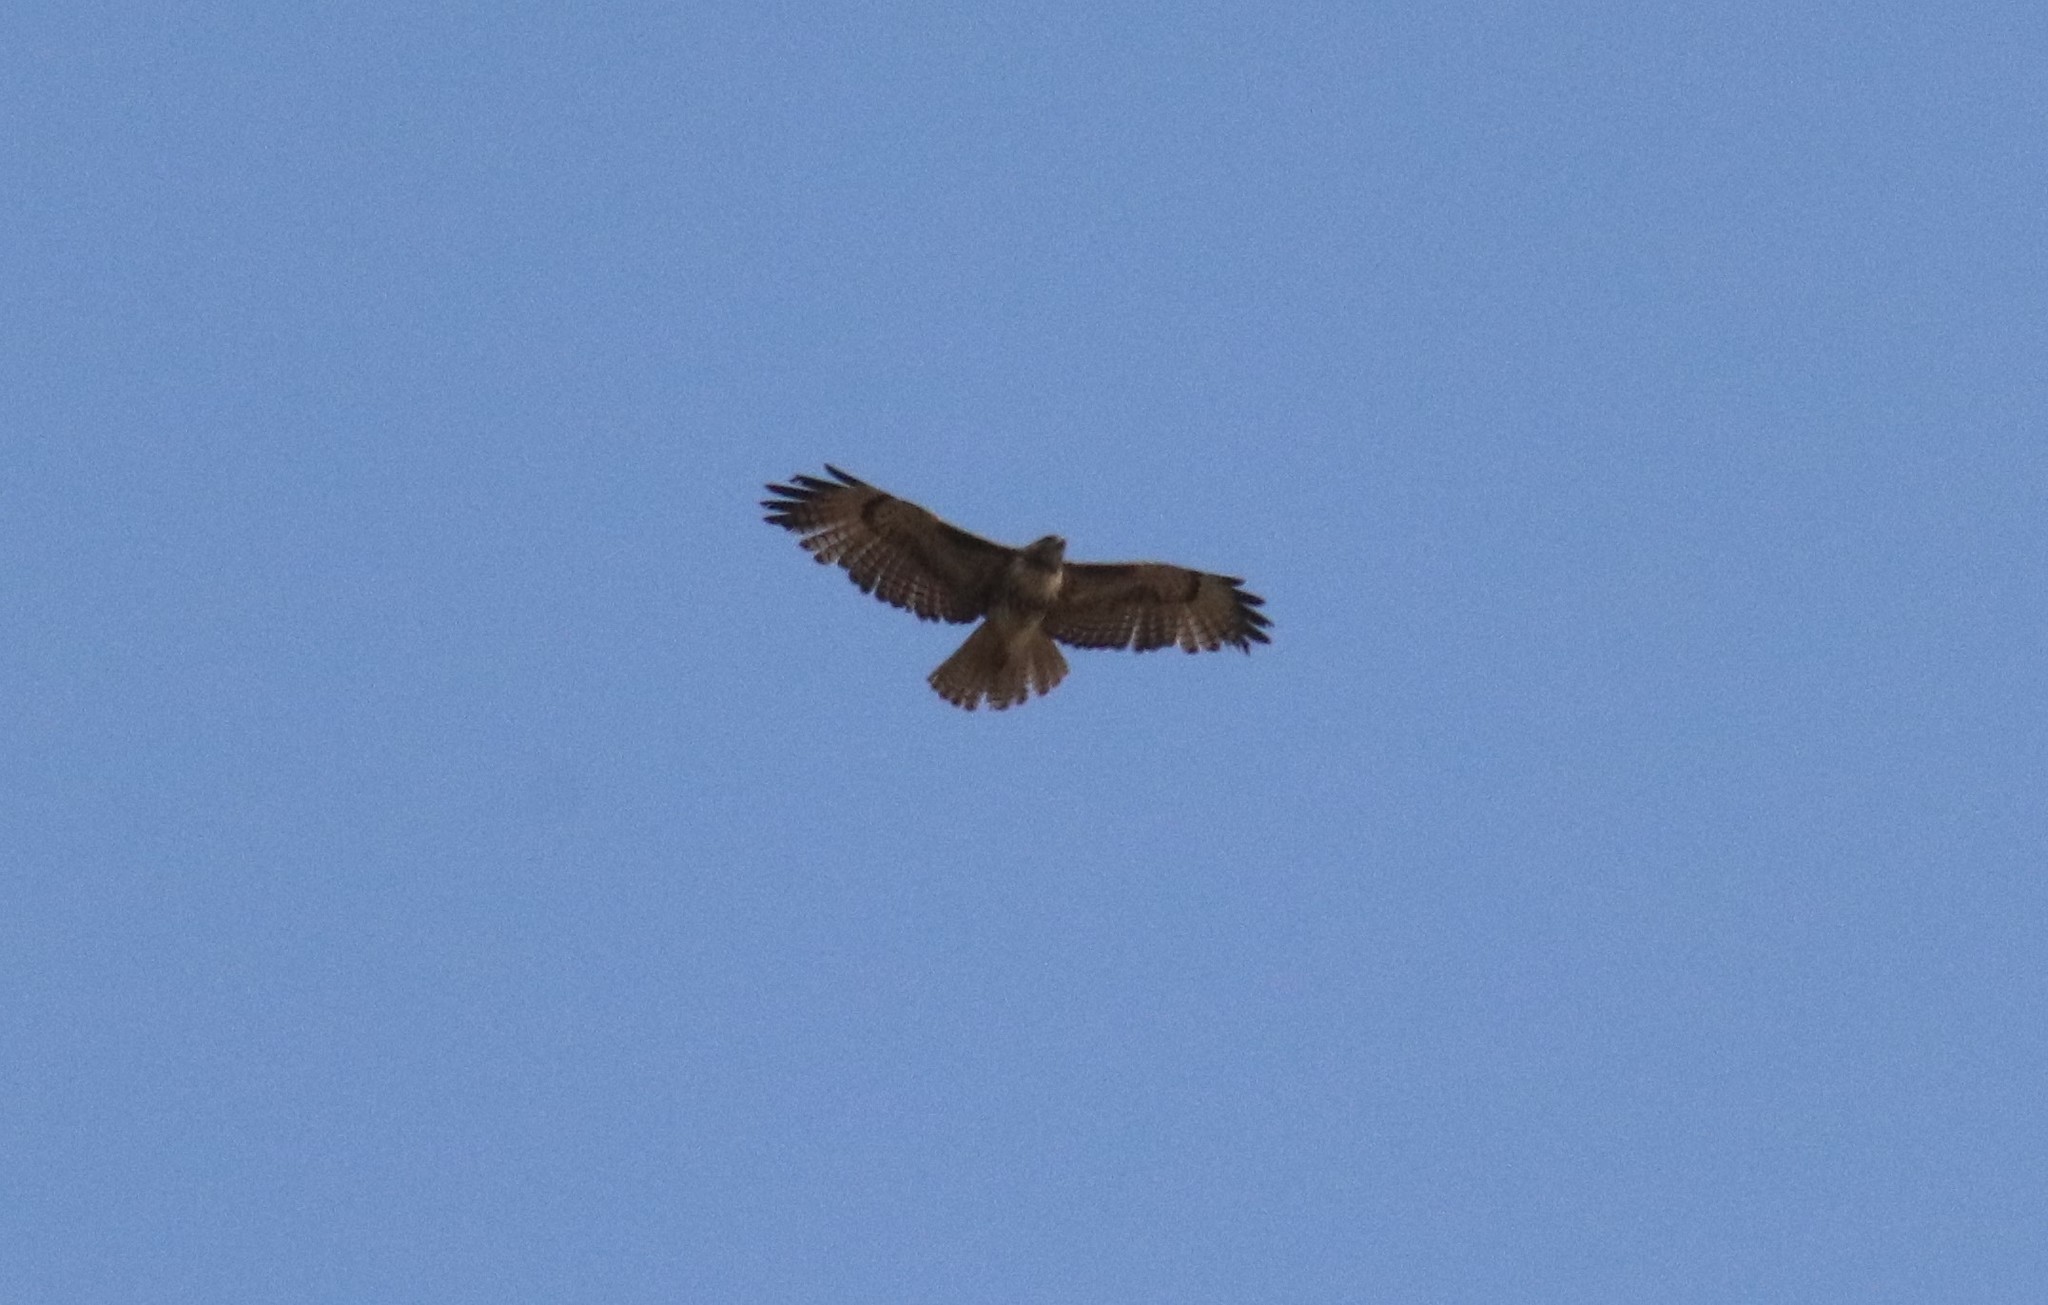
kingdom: Animalia
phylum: Chordata
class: Aves
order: Accipitriformes
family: Accipitridae
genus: Buteo
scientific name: Buteo jamaicensis
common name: Red-tailed hawk
